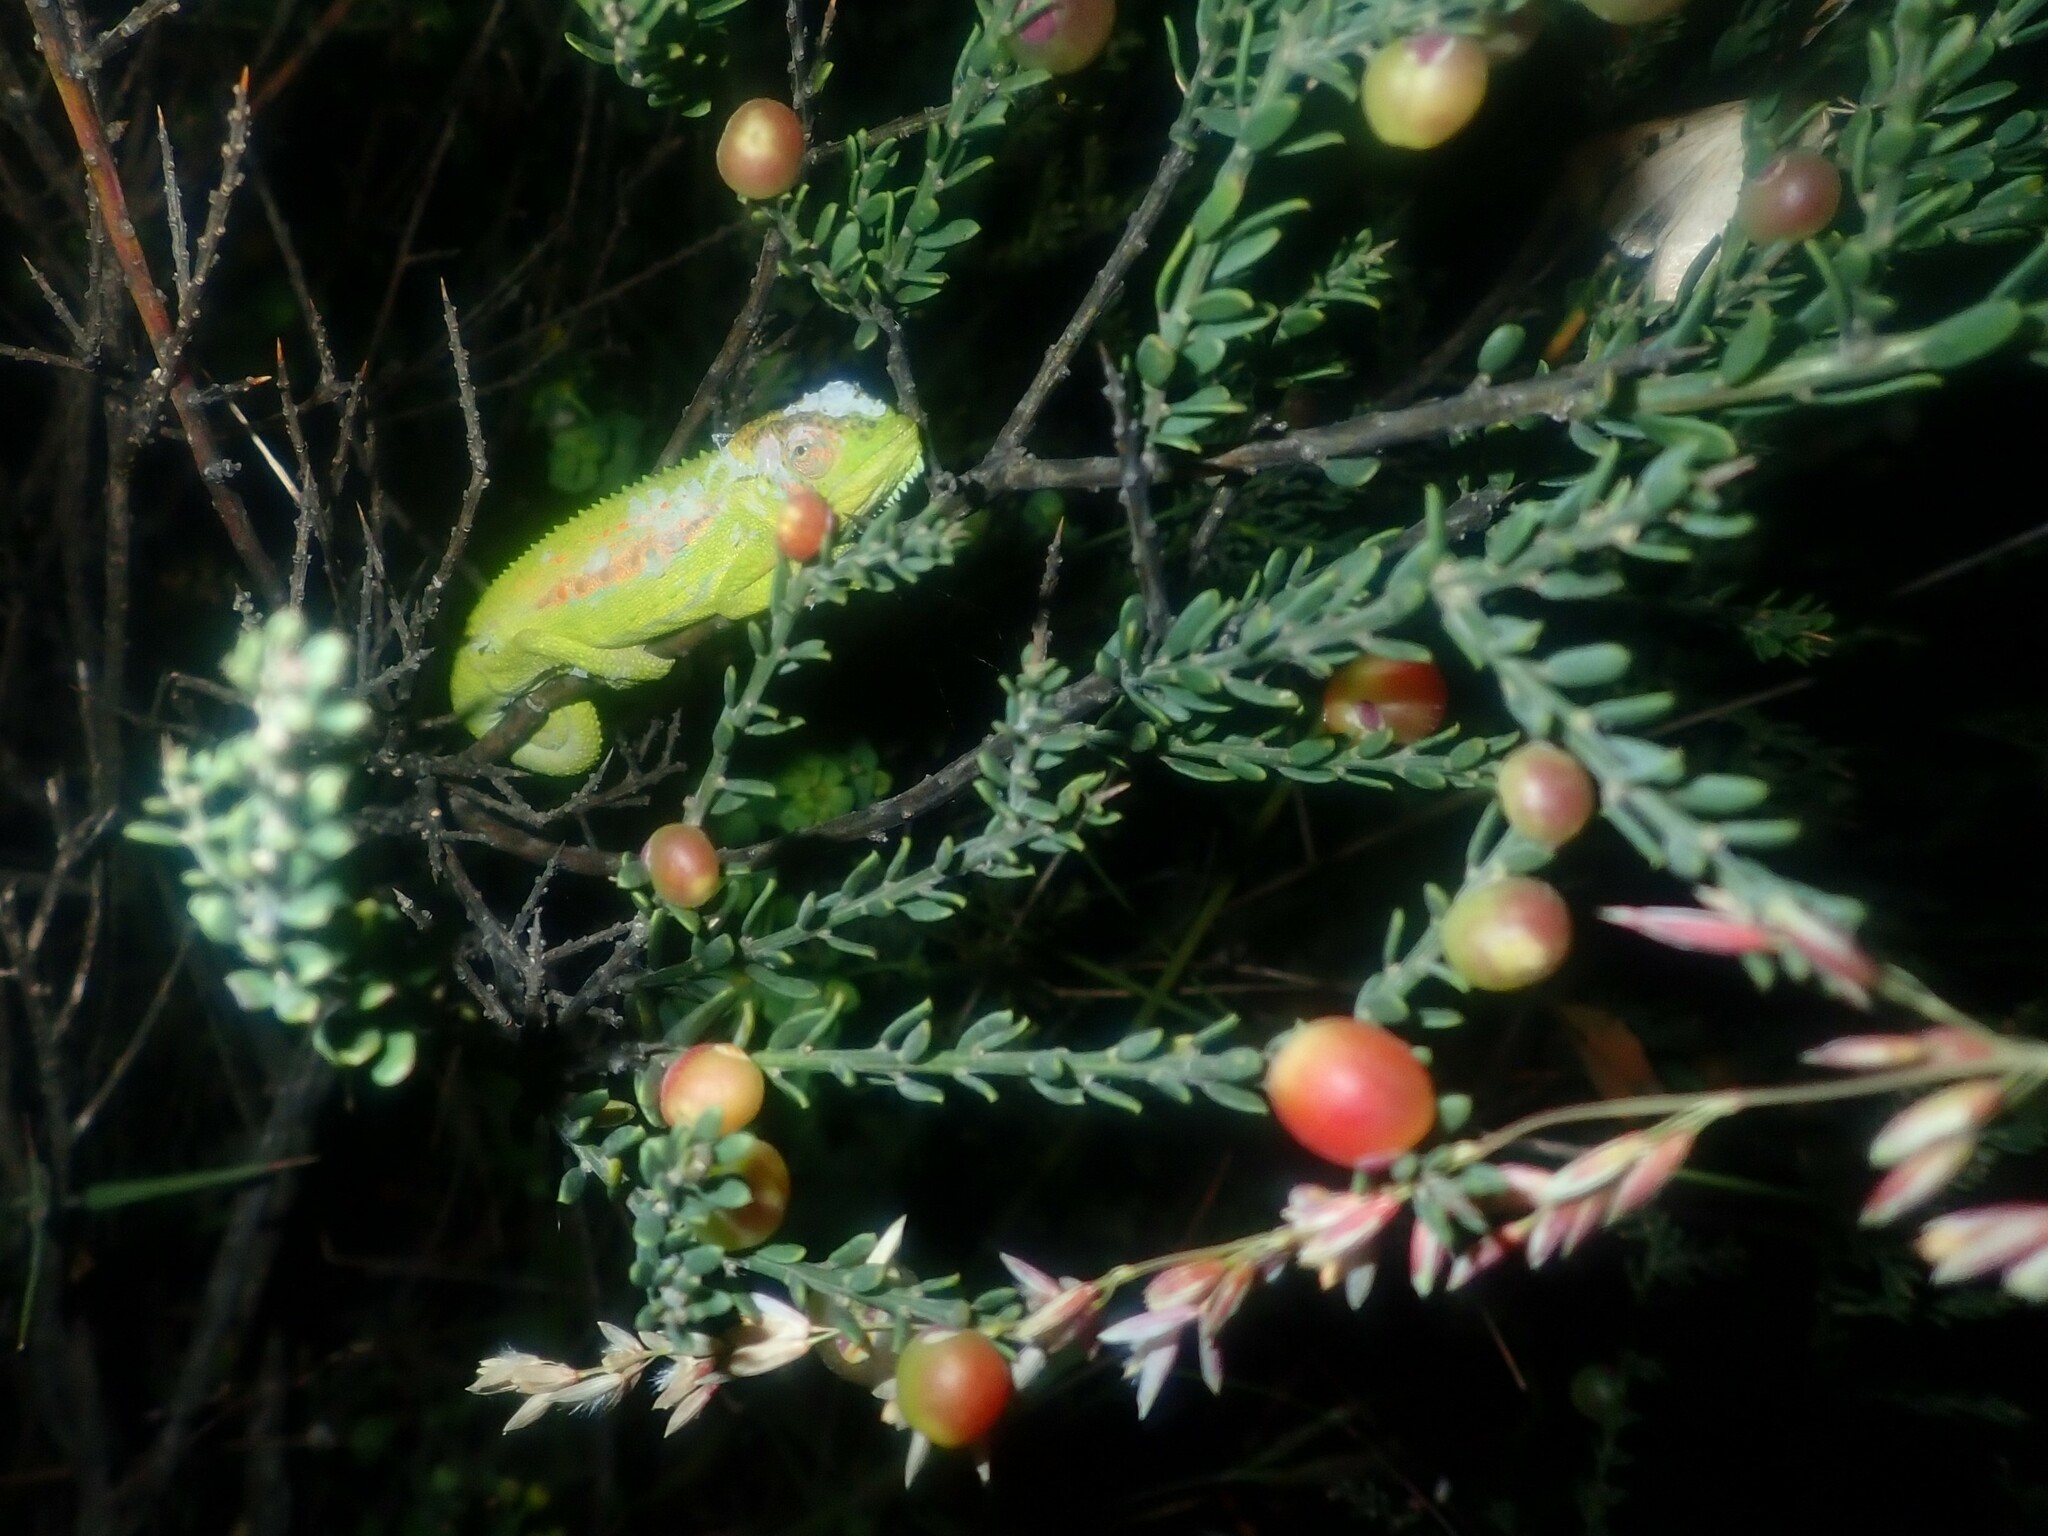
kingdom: Animalia
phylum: Chordata
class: Squamata
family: Chamaeleonidae
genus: Bradypodion
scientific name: Bradypodion pumilum
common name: Cape dwarf chameleon
